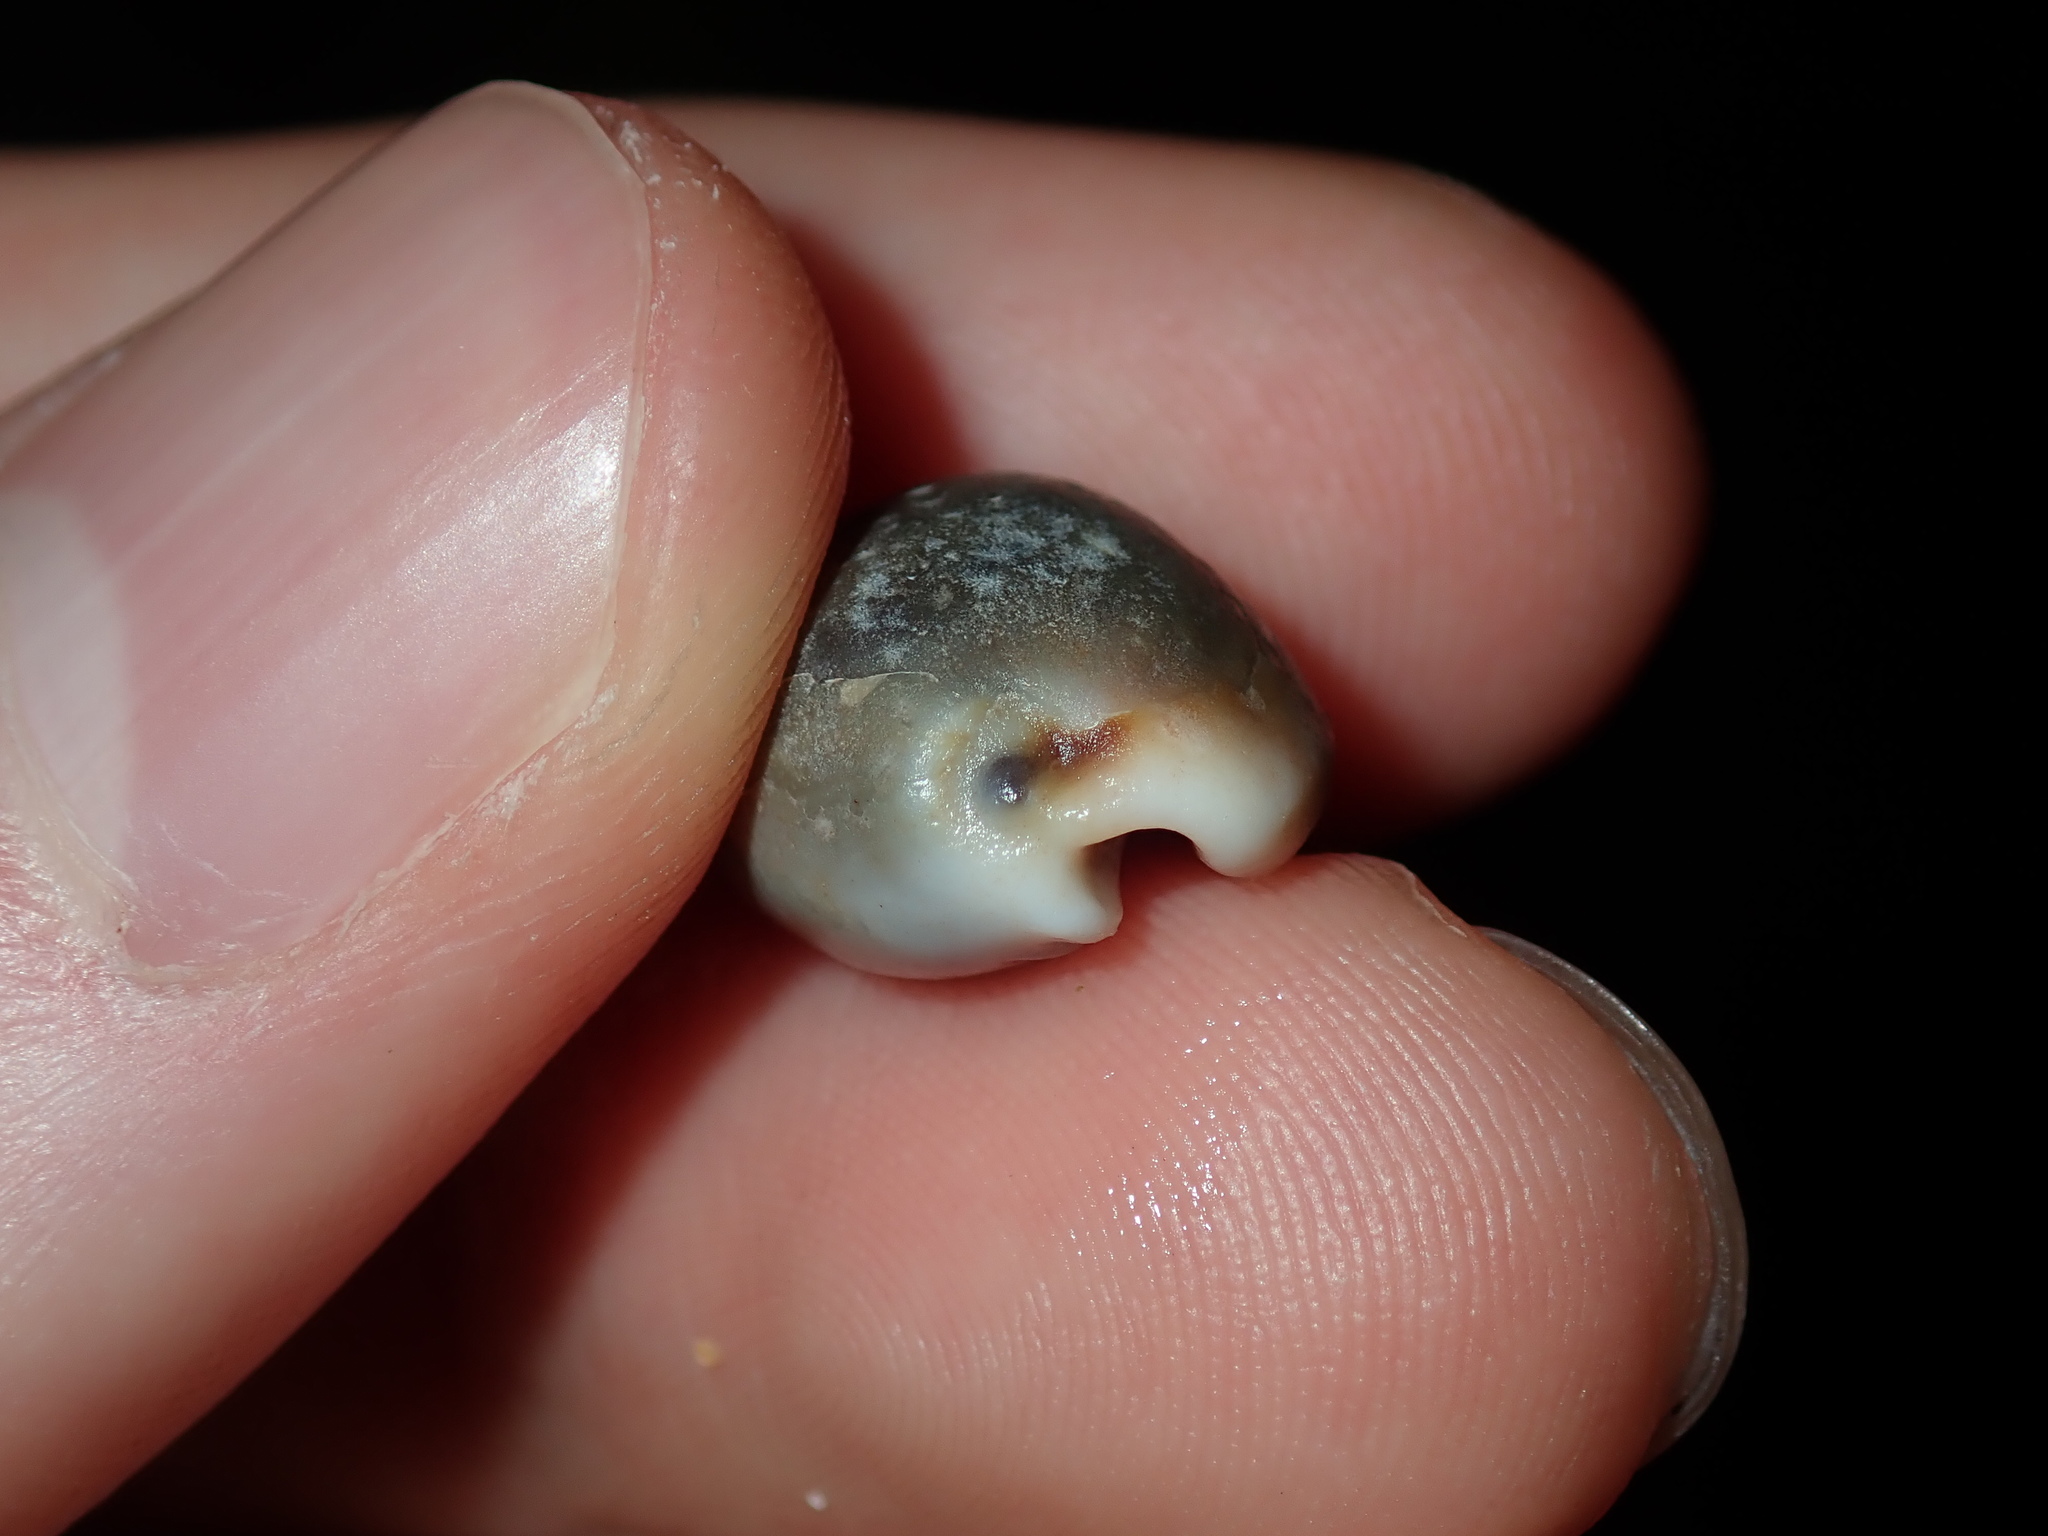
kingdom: Animalia
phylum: Mollusca
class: Gastropoda
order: Littorinimorpha
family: Cypraeidae
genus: Naria
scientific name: Naria labrolineata
